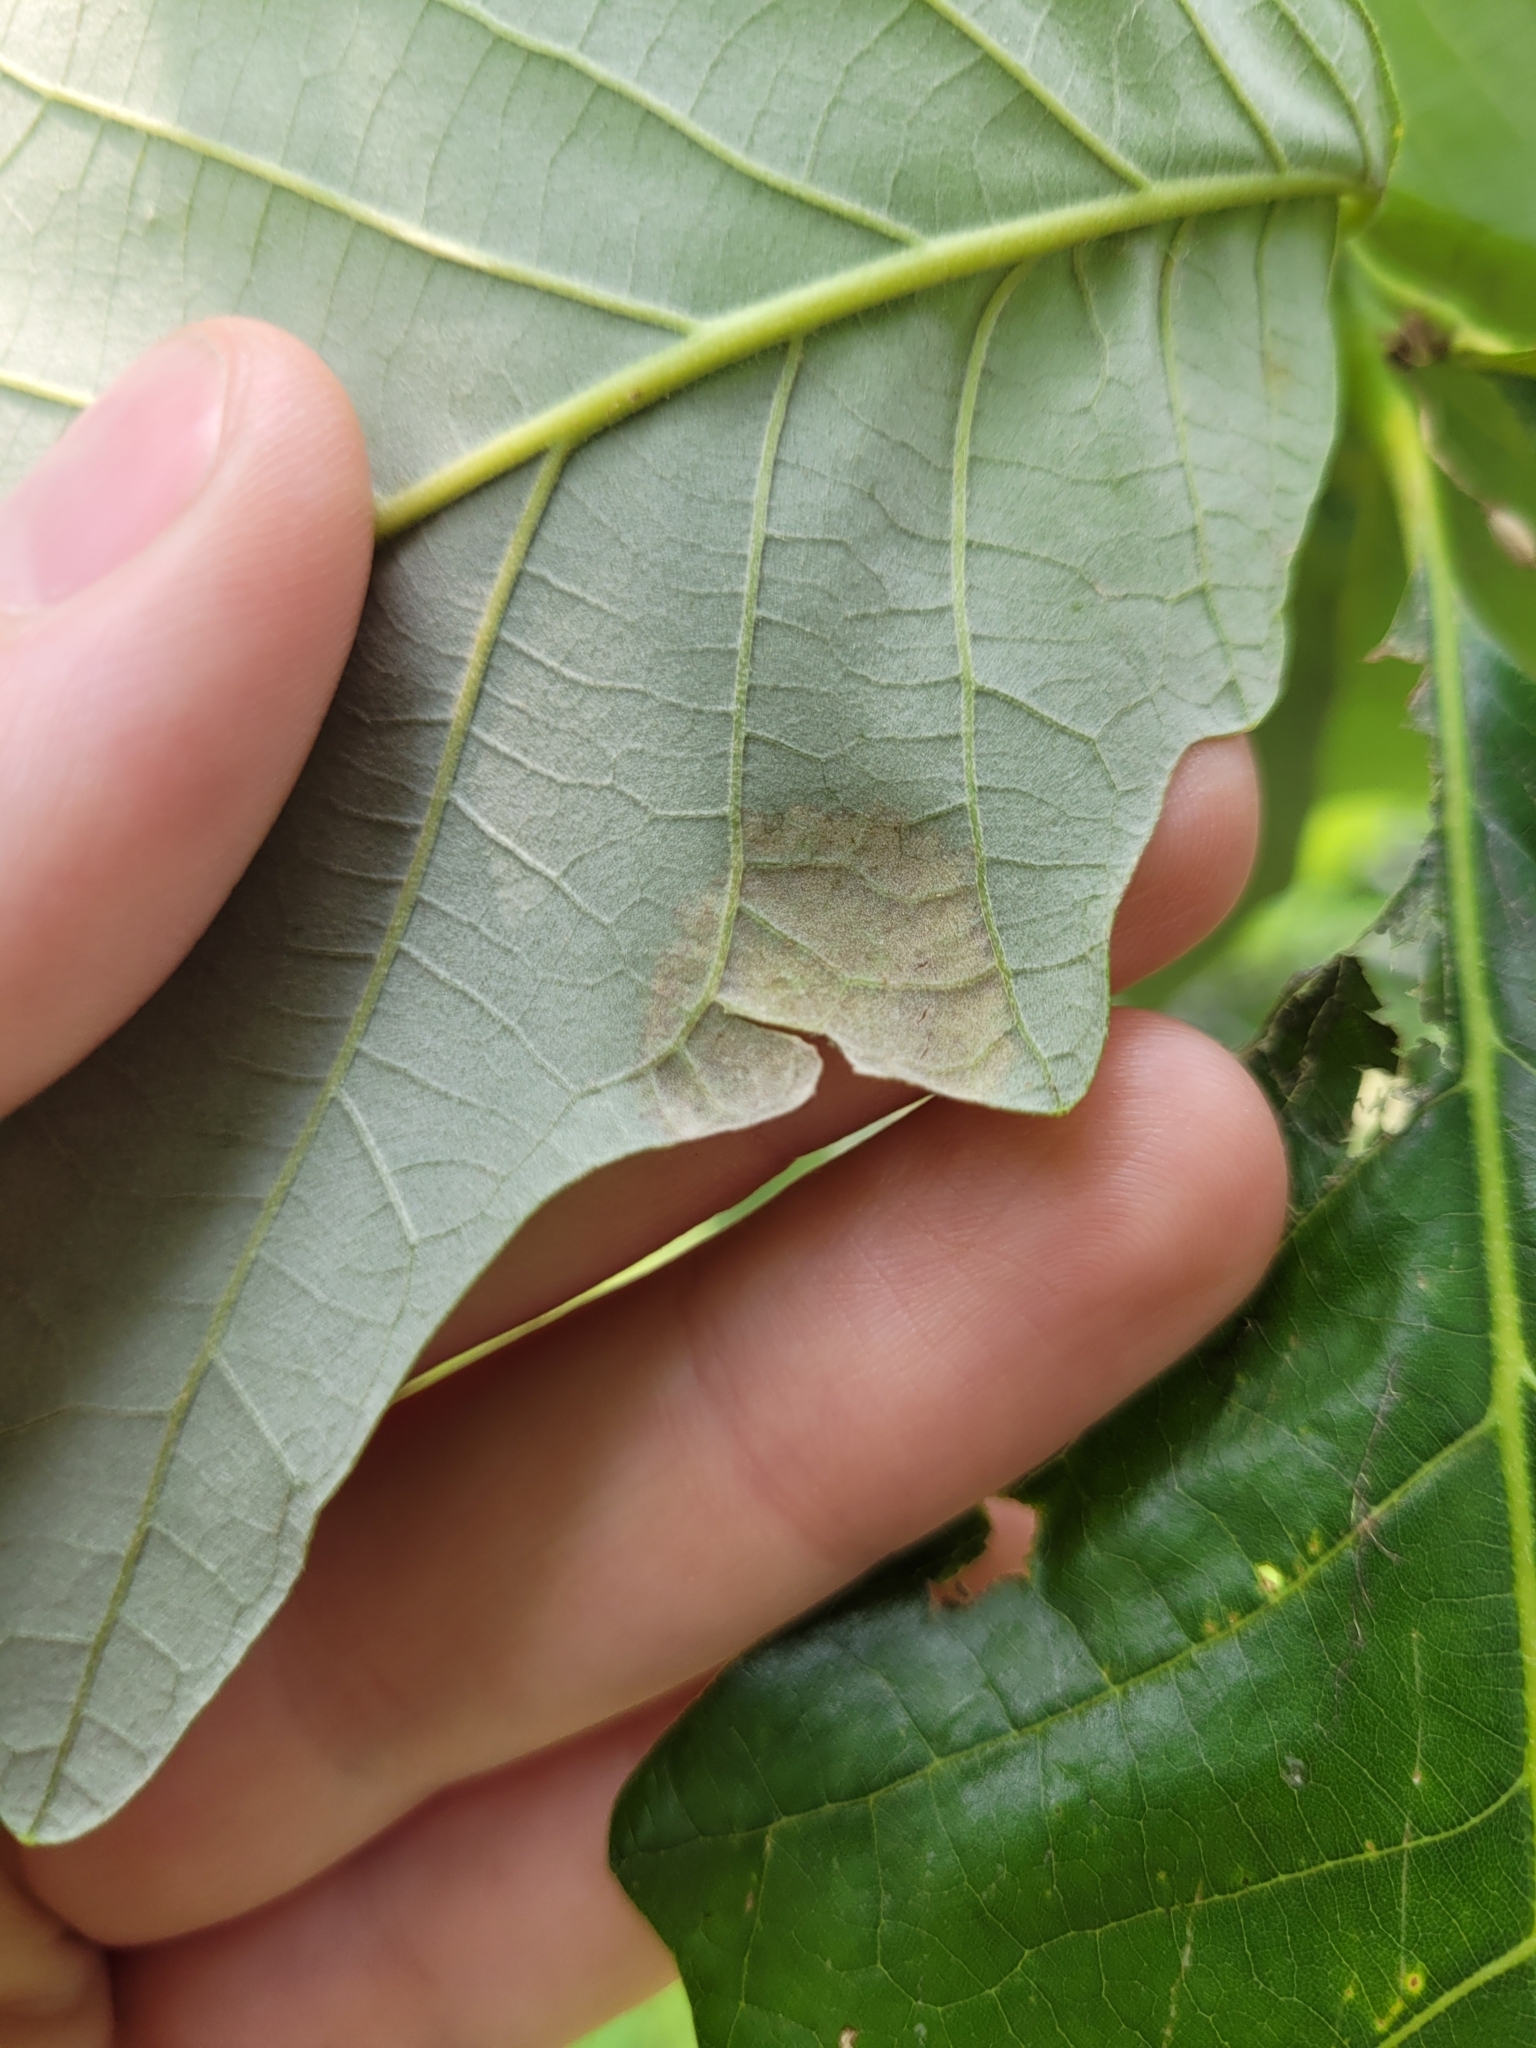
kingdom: Fungi
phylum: Ascomycota
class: Taphrinomycetes
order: Taphrinales
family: Taphrinaceae
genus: Taphrina
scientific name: Taphrina caerulescens
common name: Oak leaf blister
